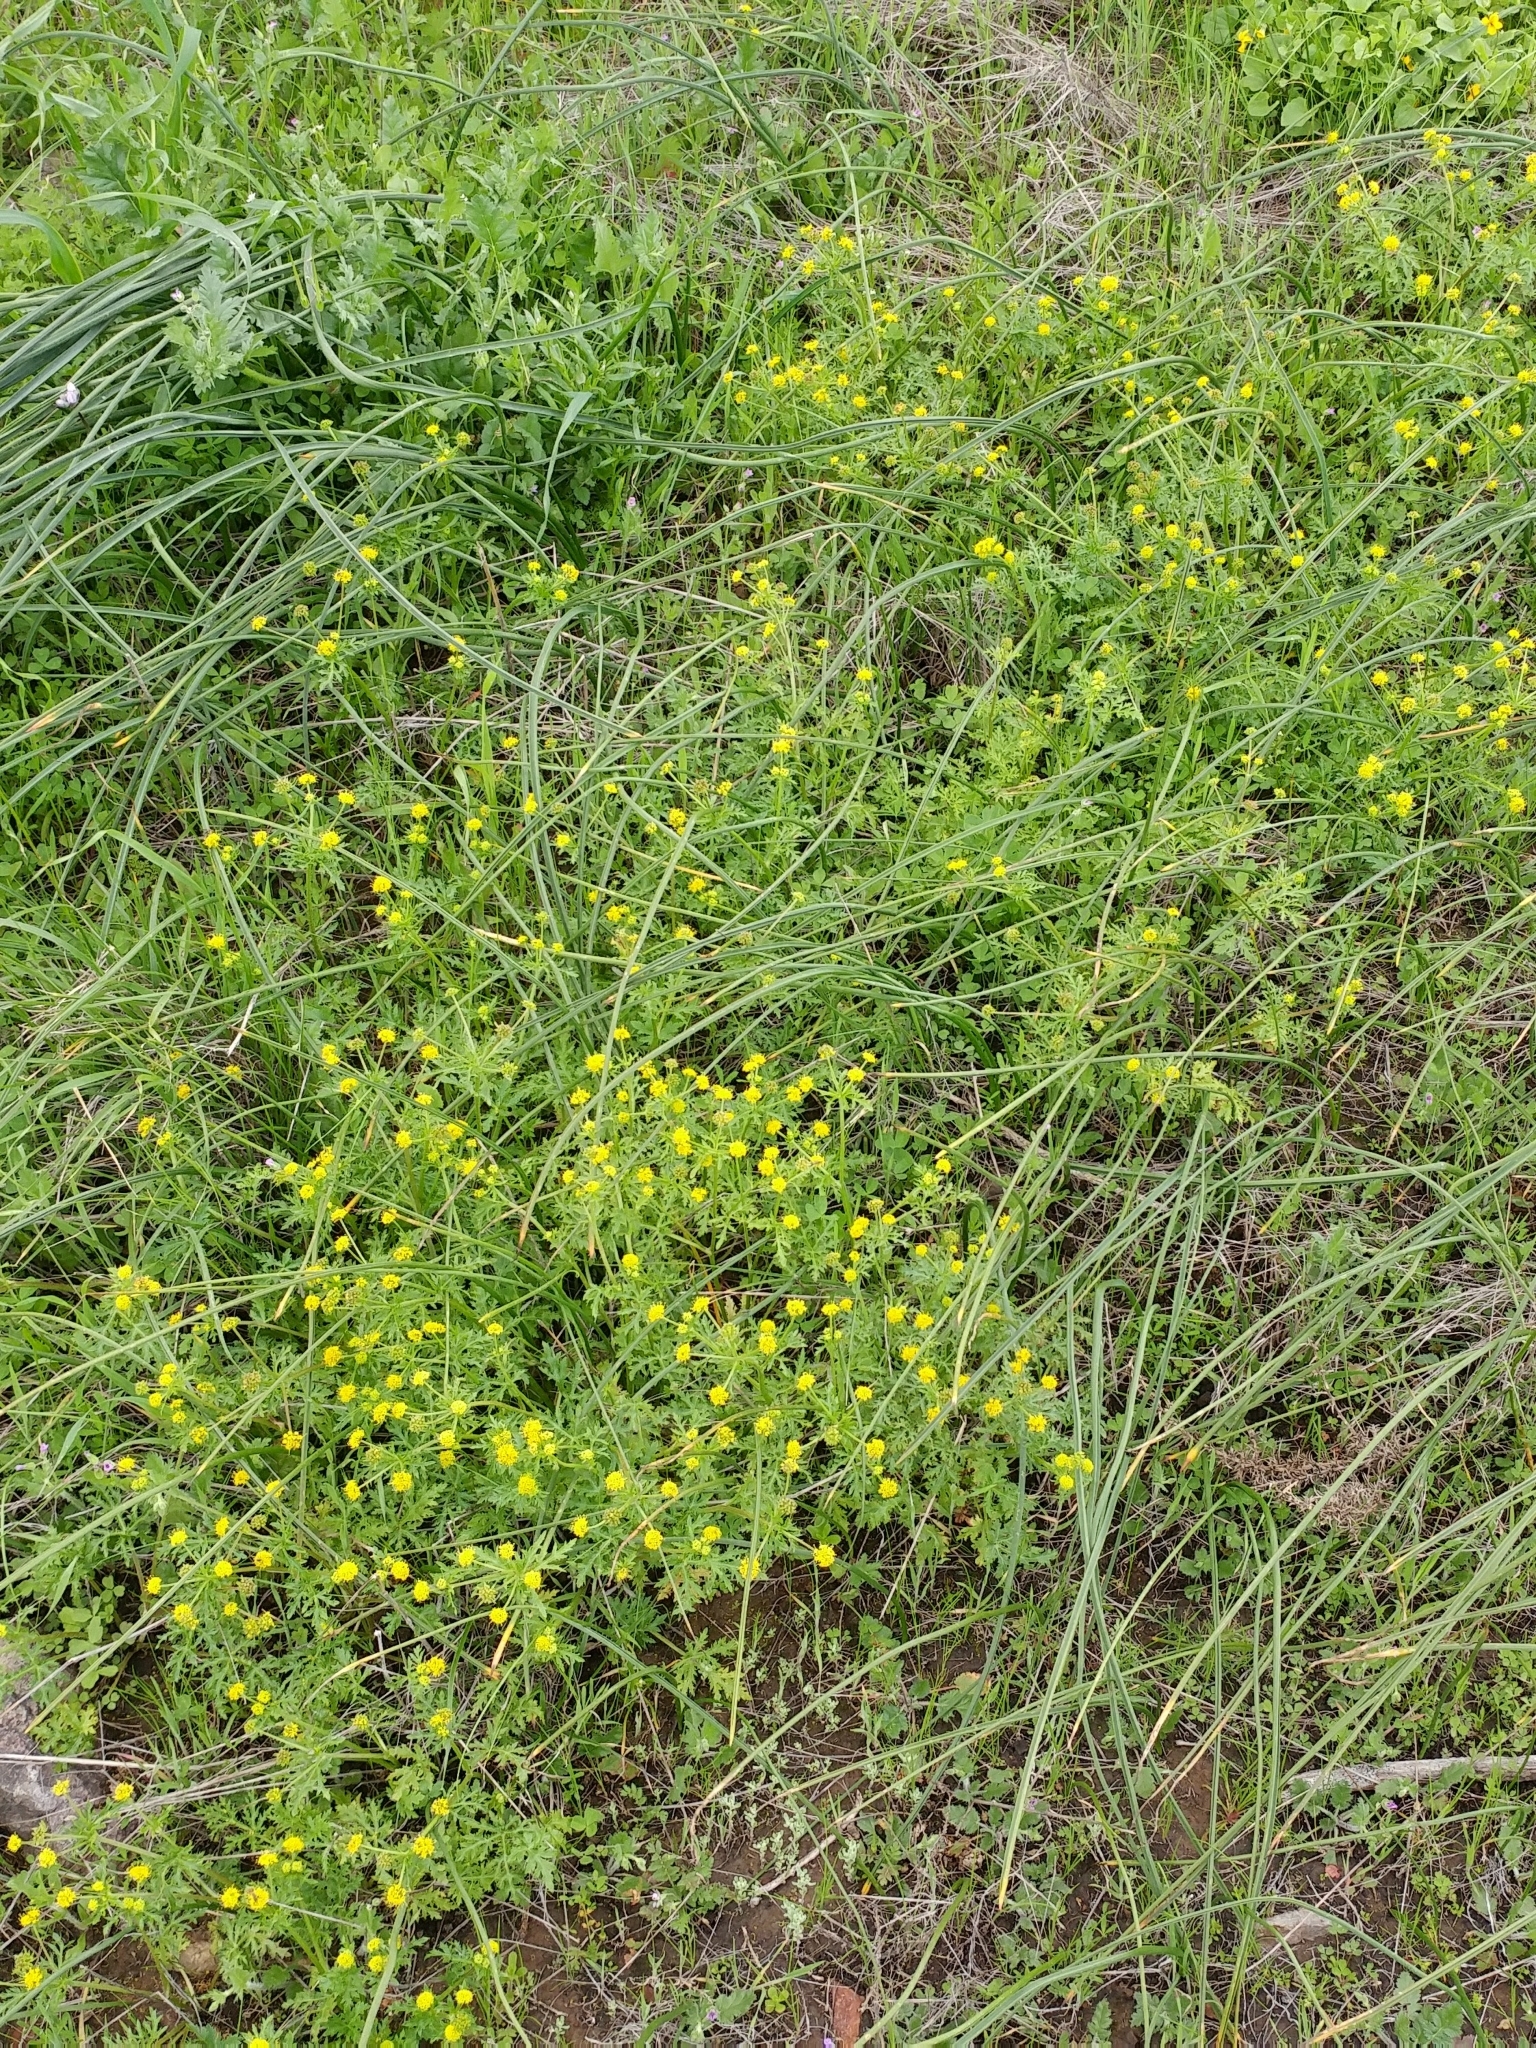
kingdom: Plantae
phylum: Tracheophyta
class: Magnoliopsida
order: Apiales
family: Apiaceae
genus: Sanicula
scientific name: Sanicula arguta
